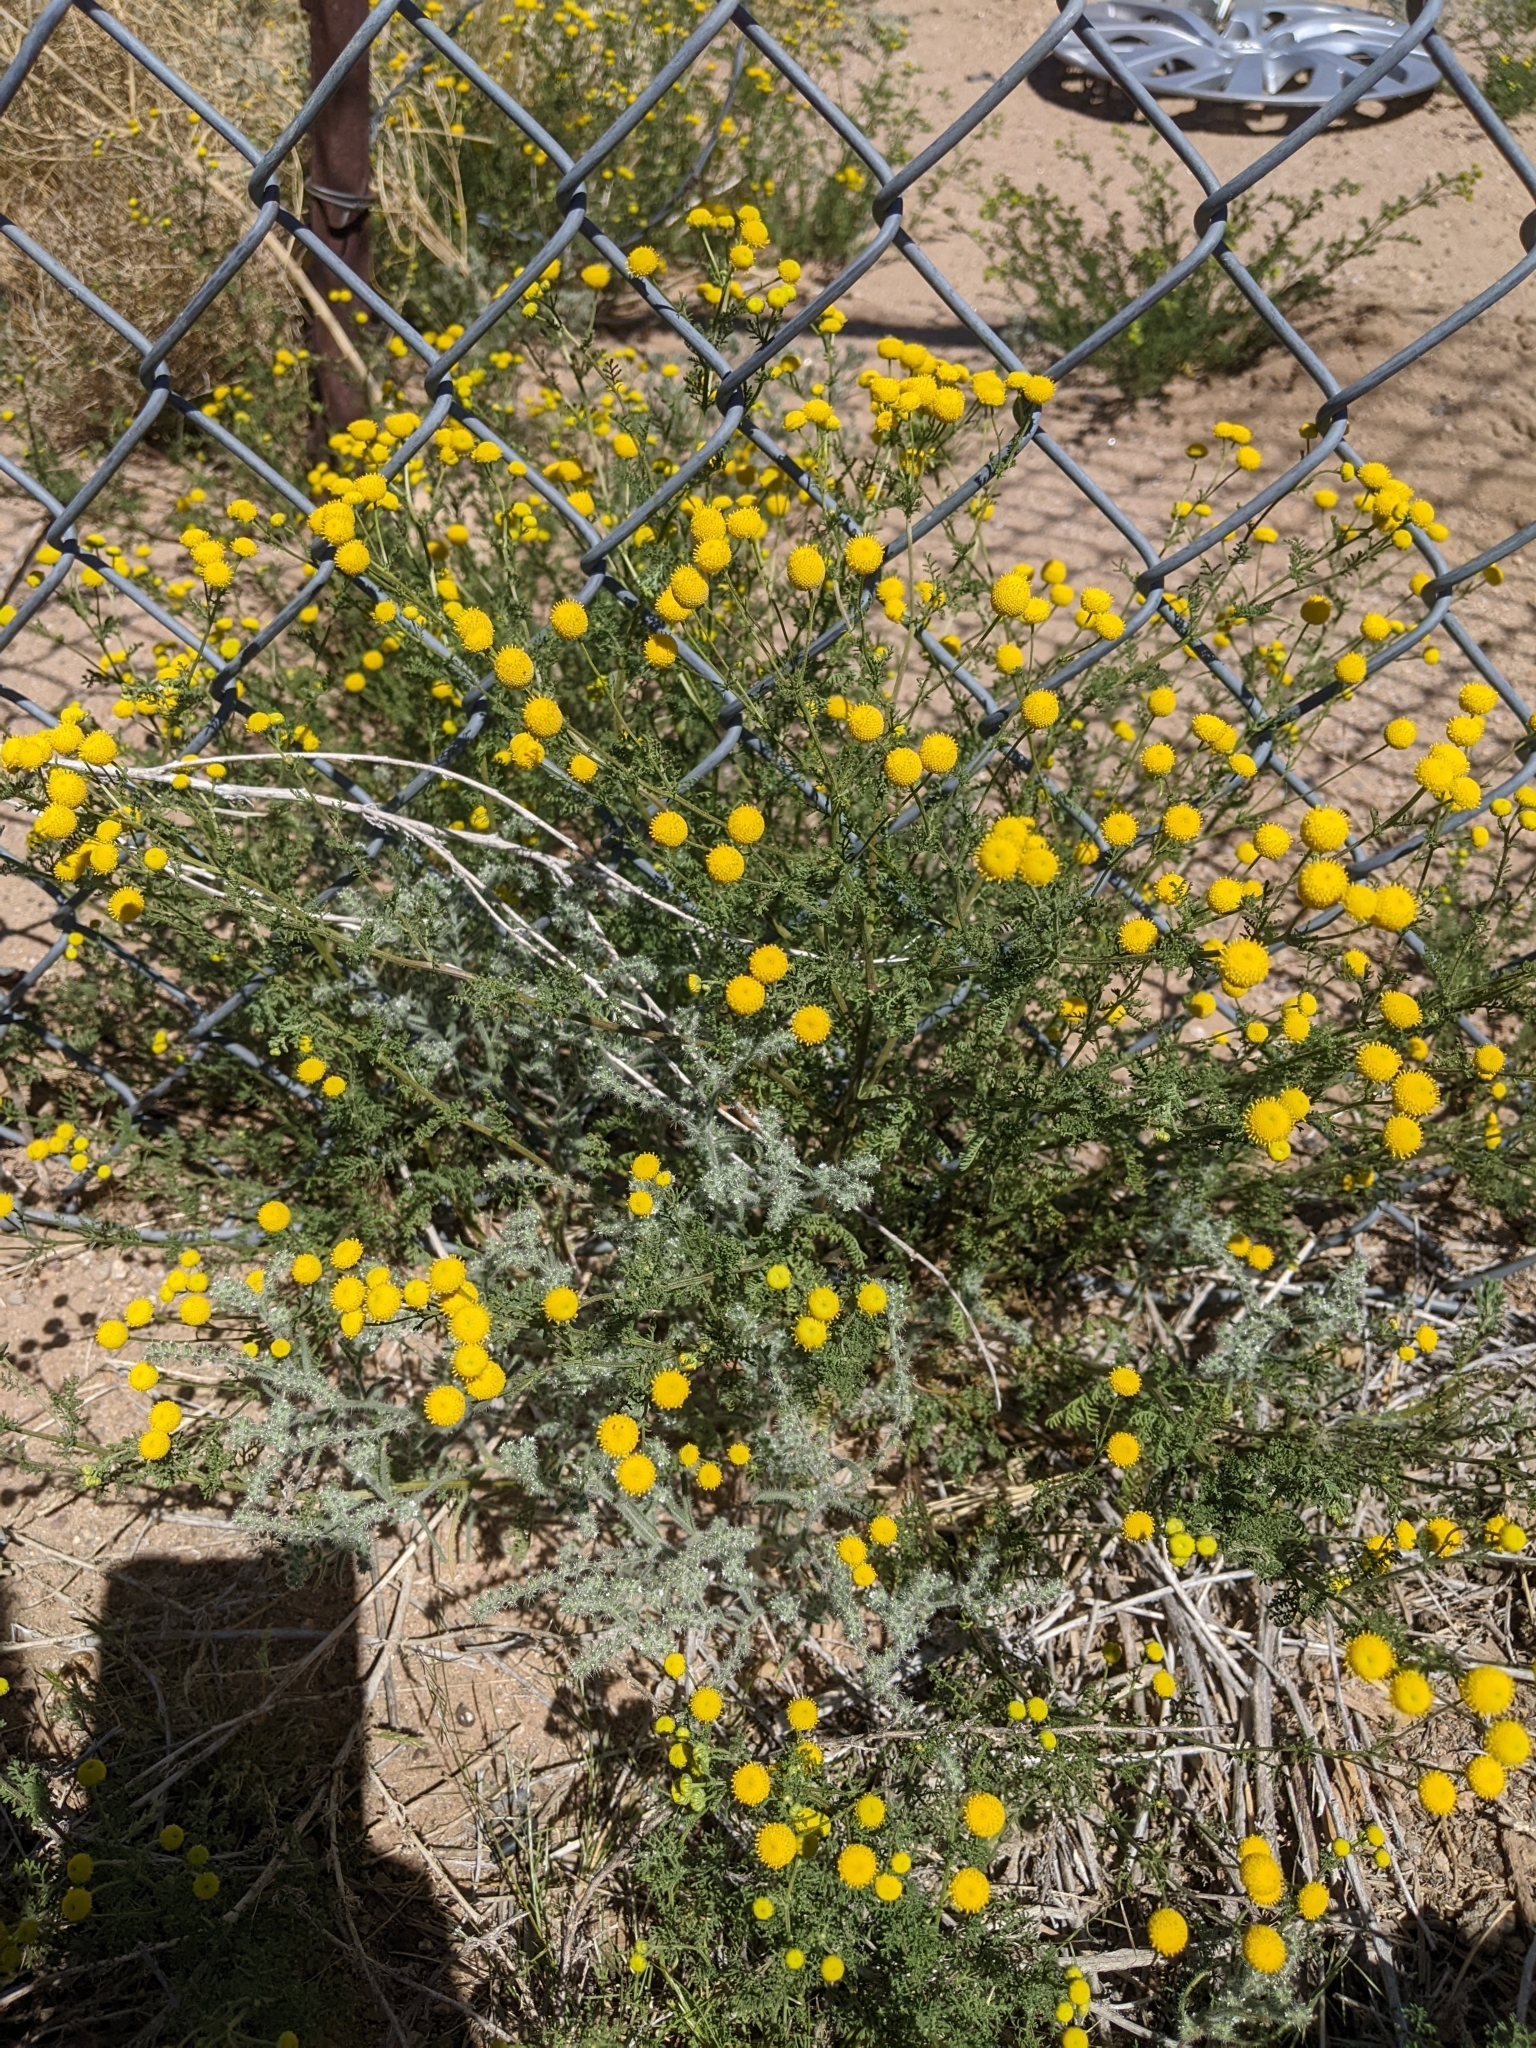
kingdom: Plantae
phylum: Tracheophyta
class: Magnoliopsida
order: Asterales
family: Asteraceae
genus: Oncosiphon
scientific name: Oncosiphon pilulifer
